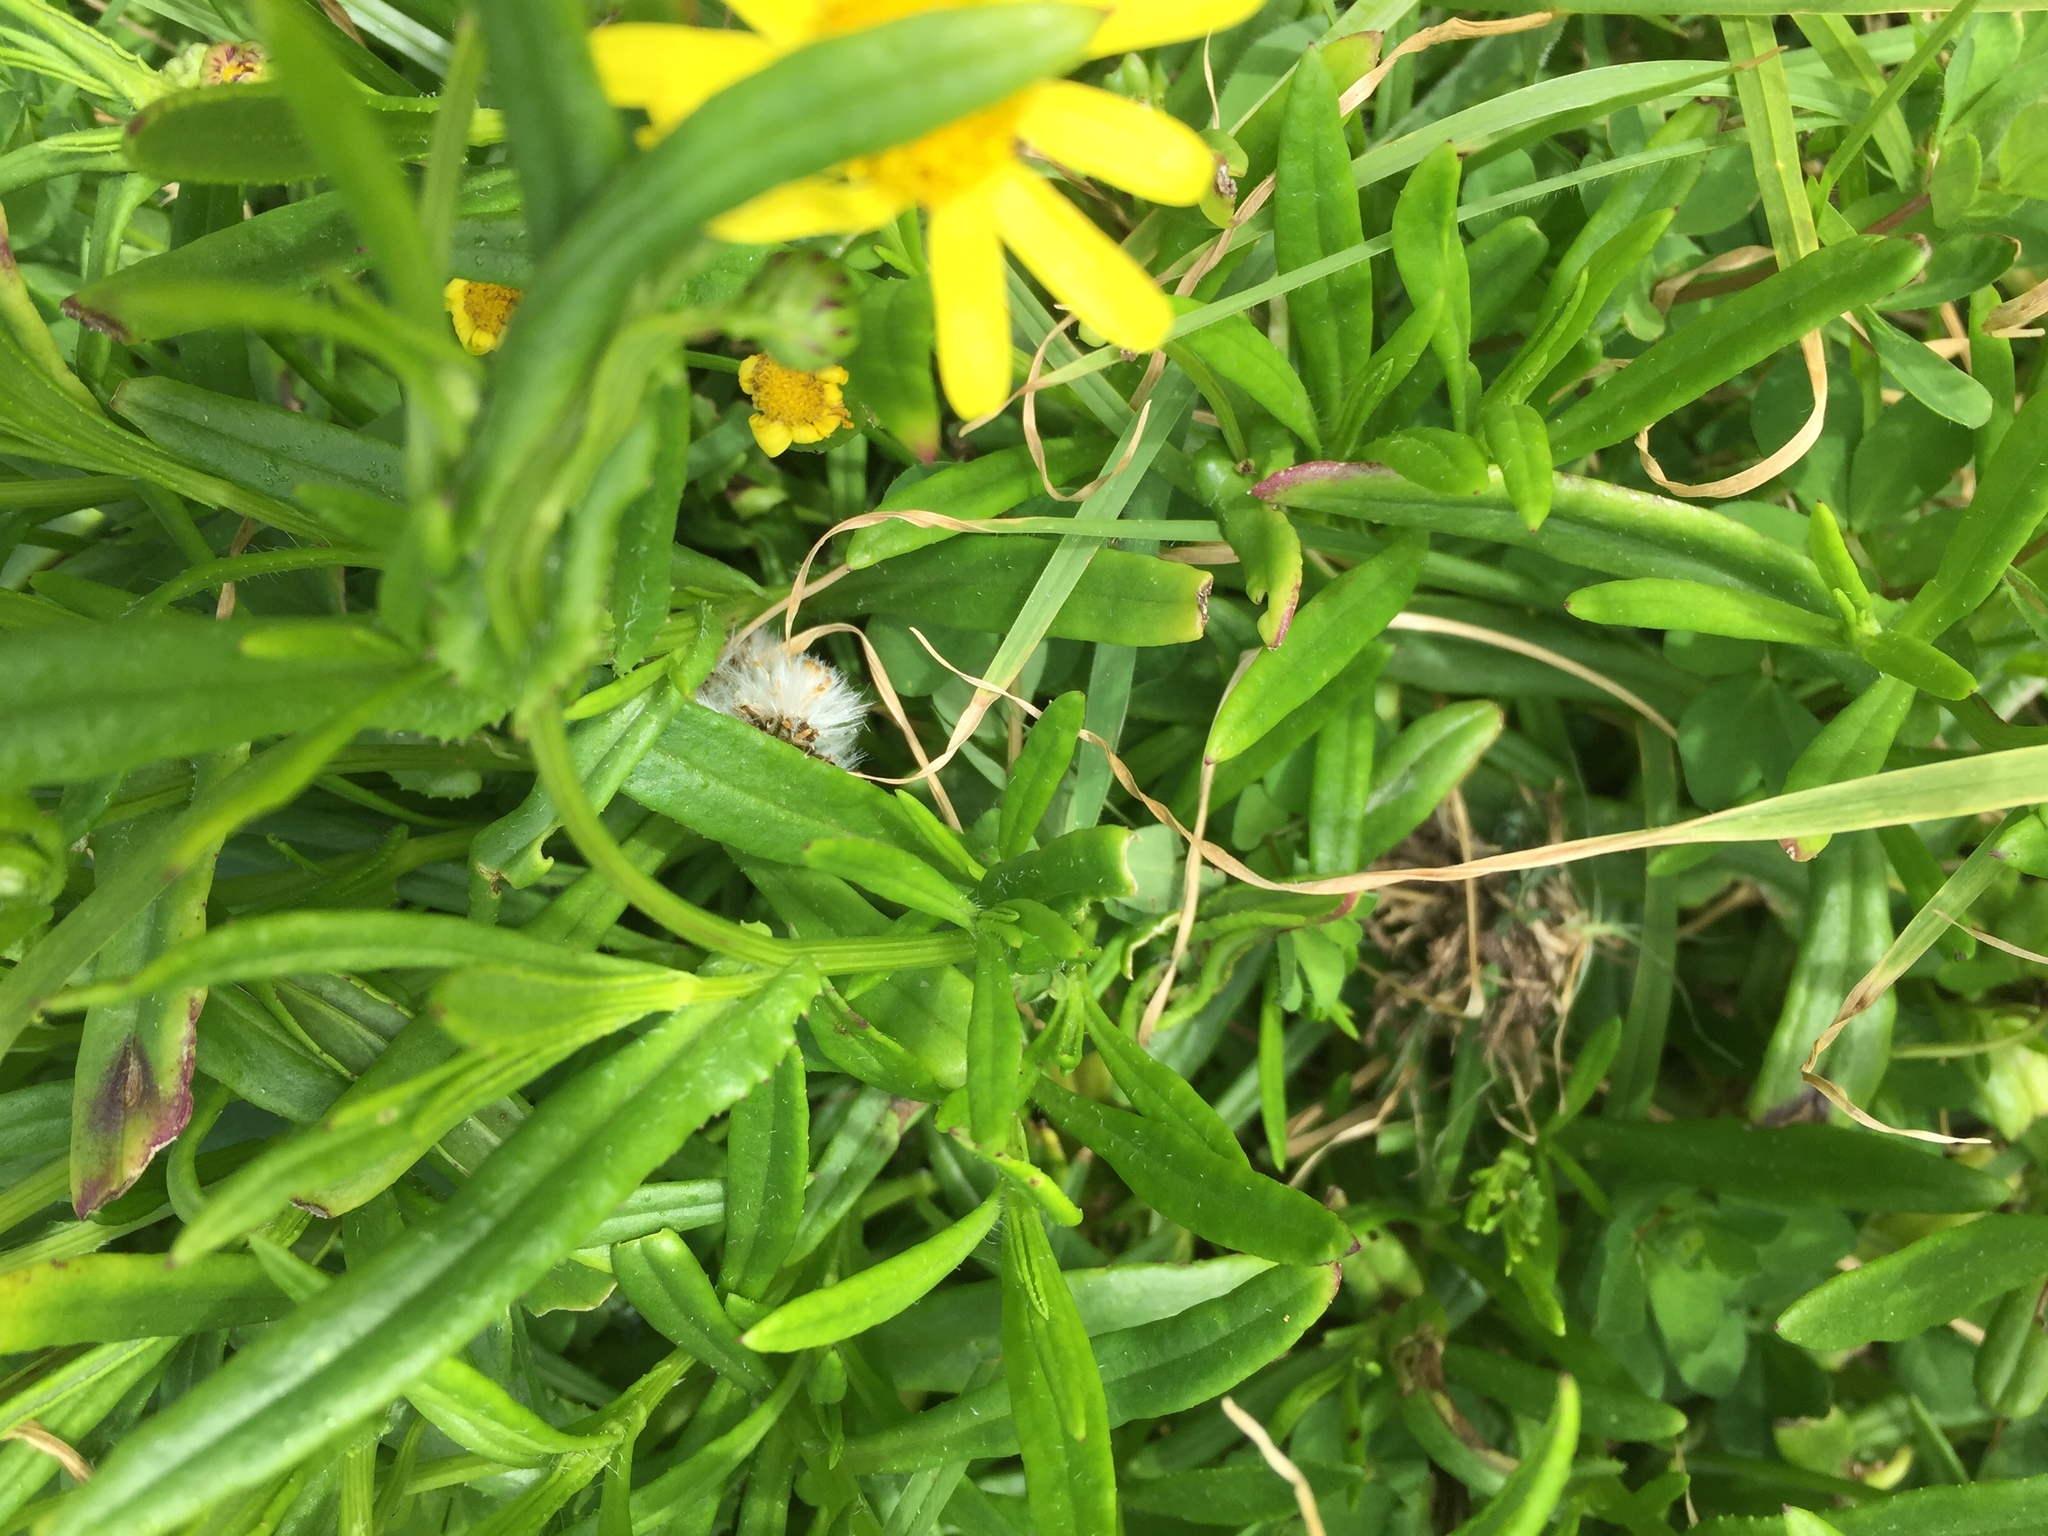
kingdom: Plantae
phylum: Tracheophyta
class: Magnoliopsida
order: Asterales
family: Asteraceae
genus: Senecio
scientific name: Senecio skirrhodon
